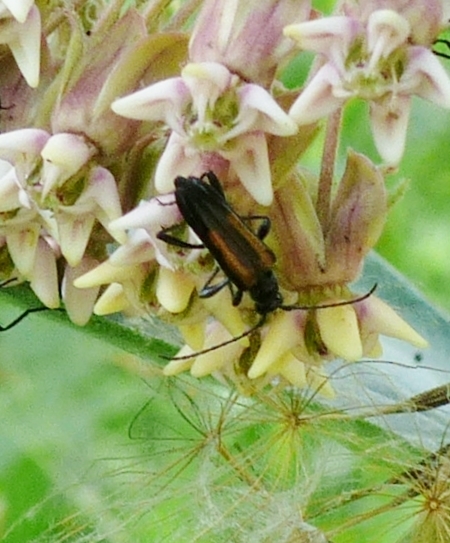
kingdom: Animalia
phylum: Arthropoda
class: Insecta
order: Coleoptera
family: Cerambycidae
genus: Strangalepta
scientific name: Strangalepta abbreviata
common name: Strangalepta flower longhorn beetle
